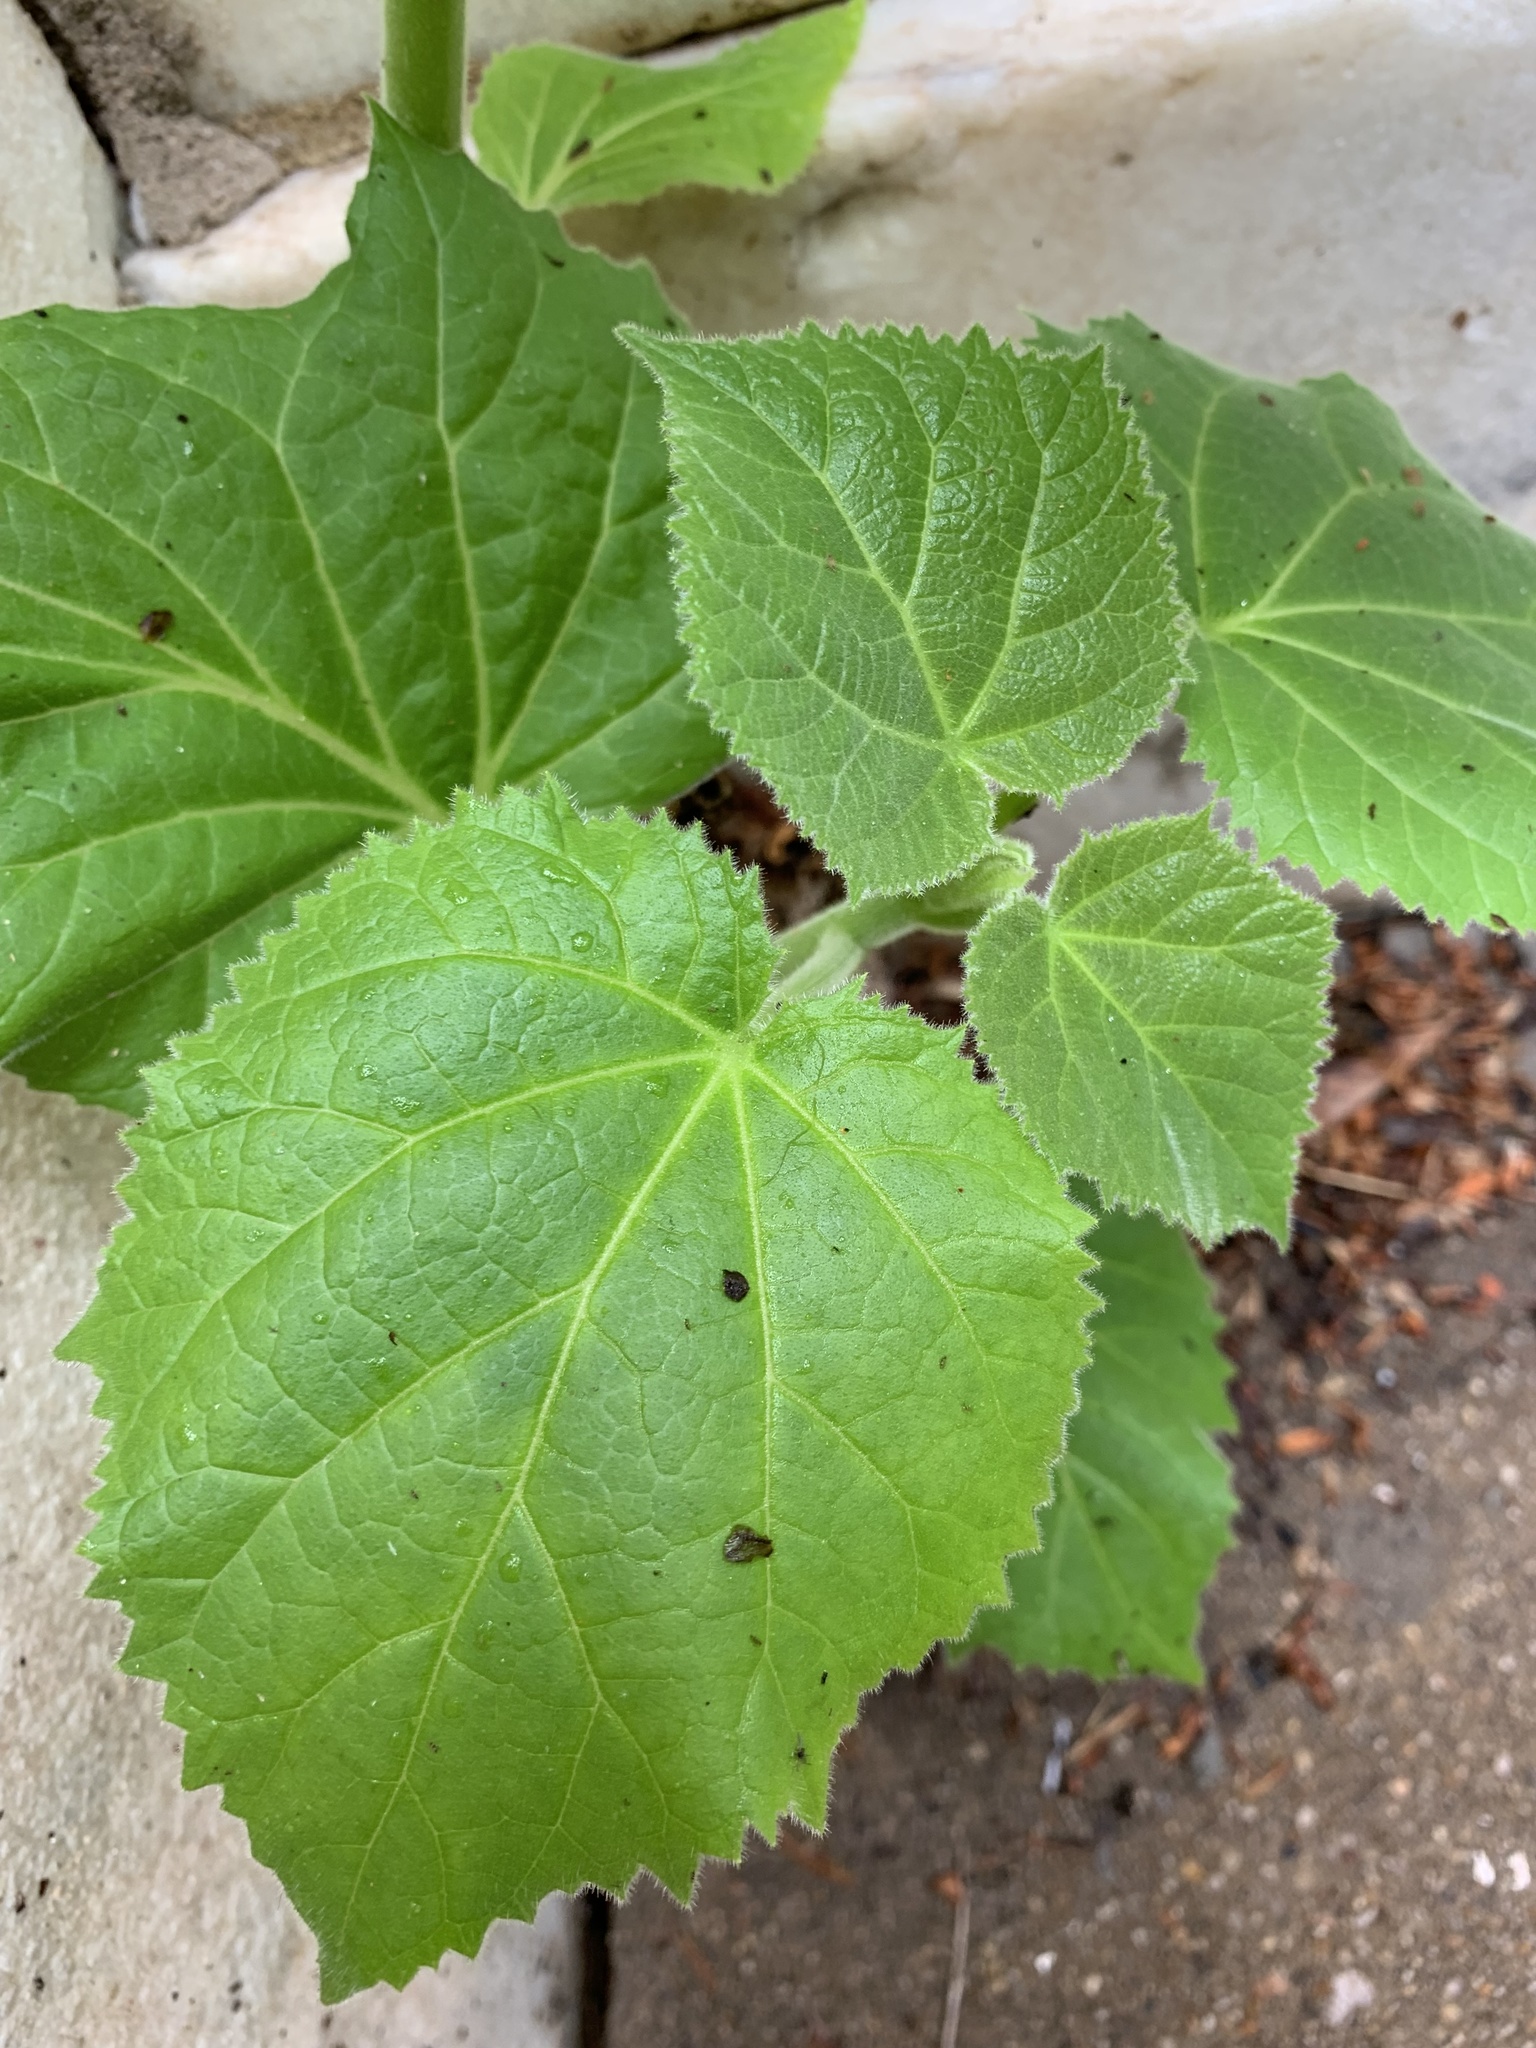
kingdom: Plantae
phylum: Tracheophyta
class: Magnoliopsida
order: Lamiales
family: Paulowniaceae
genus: Paulownia
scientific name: Paulownia tomentosa
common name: Foxglove-tree
